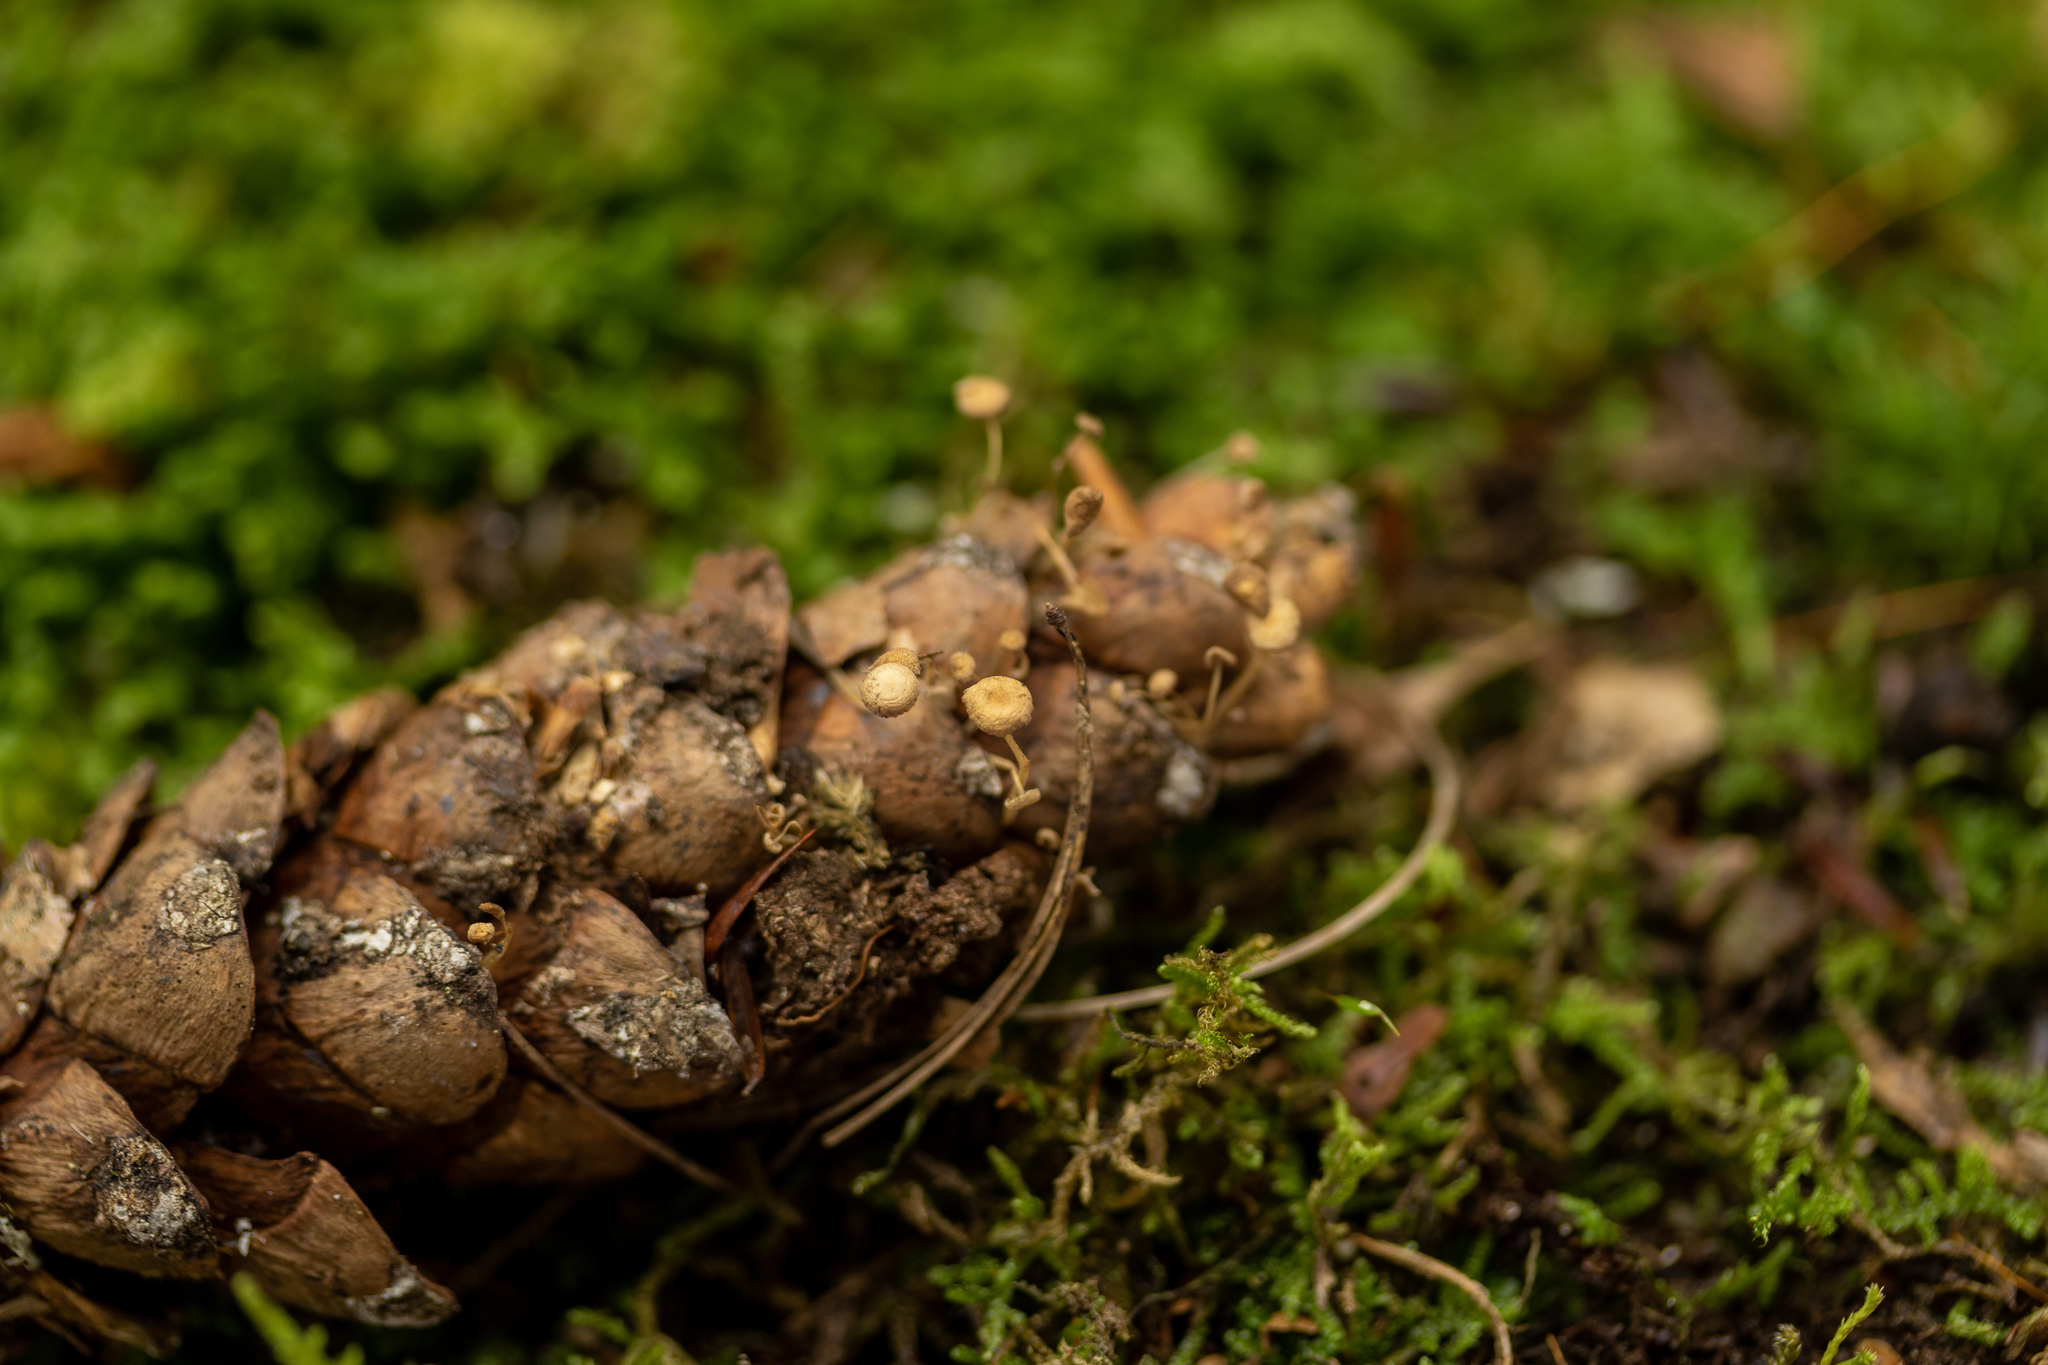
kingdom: Fungi
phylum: Basidiomycota
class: Agaricomycetes
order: Agaricales
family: Marasmiaceae
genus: Baeospora
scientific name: Baeospora myosura
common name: Conifercone cap
